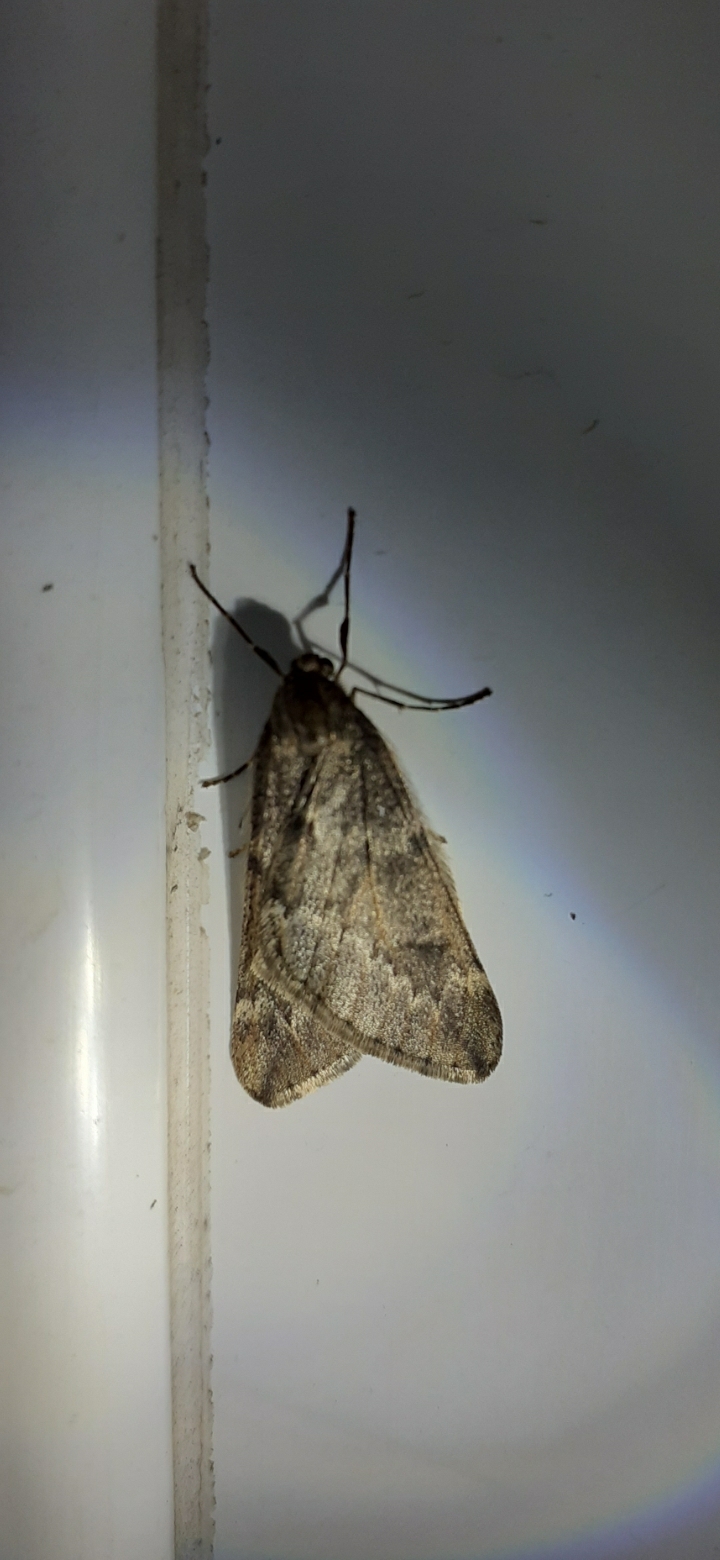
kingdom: Animalia
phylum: Arthropoda
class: Insecta
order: Lepidoptera
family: Geometridae
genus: Alsophila
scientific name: Alsophila aescularia
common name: March moth
